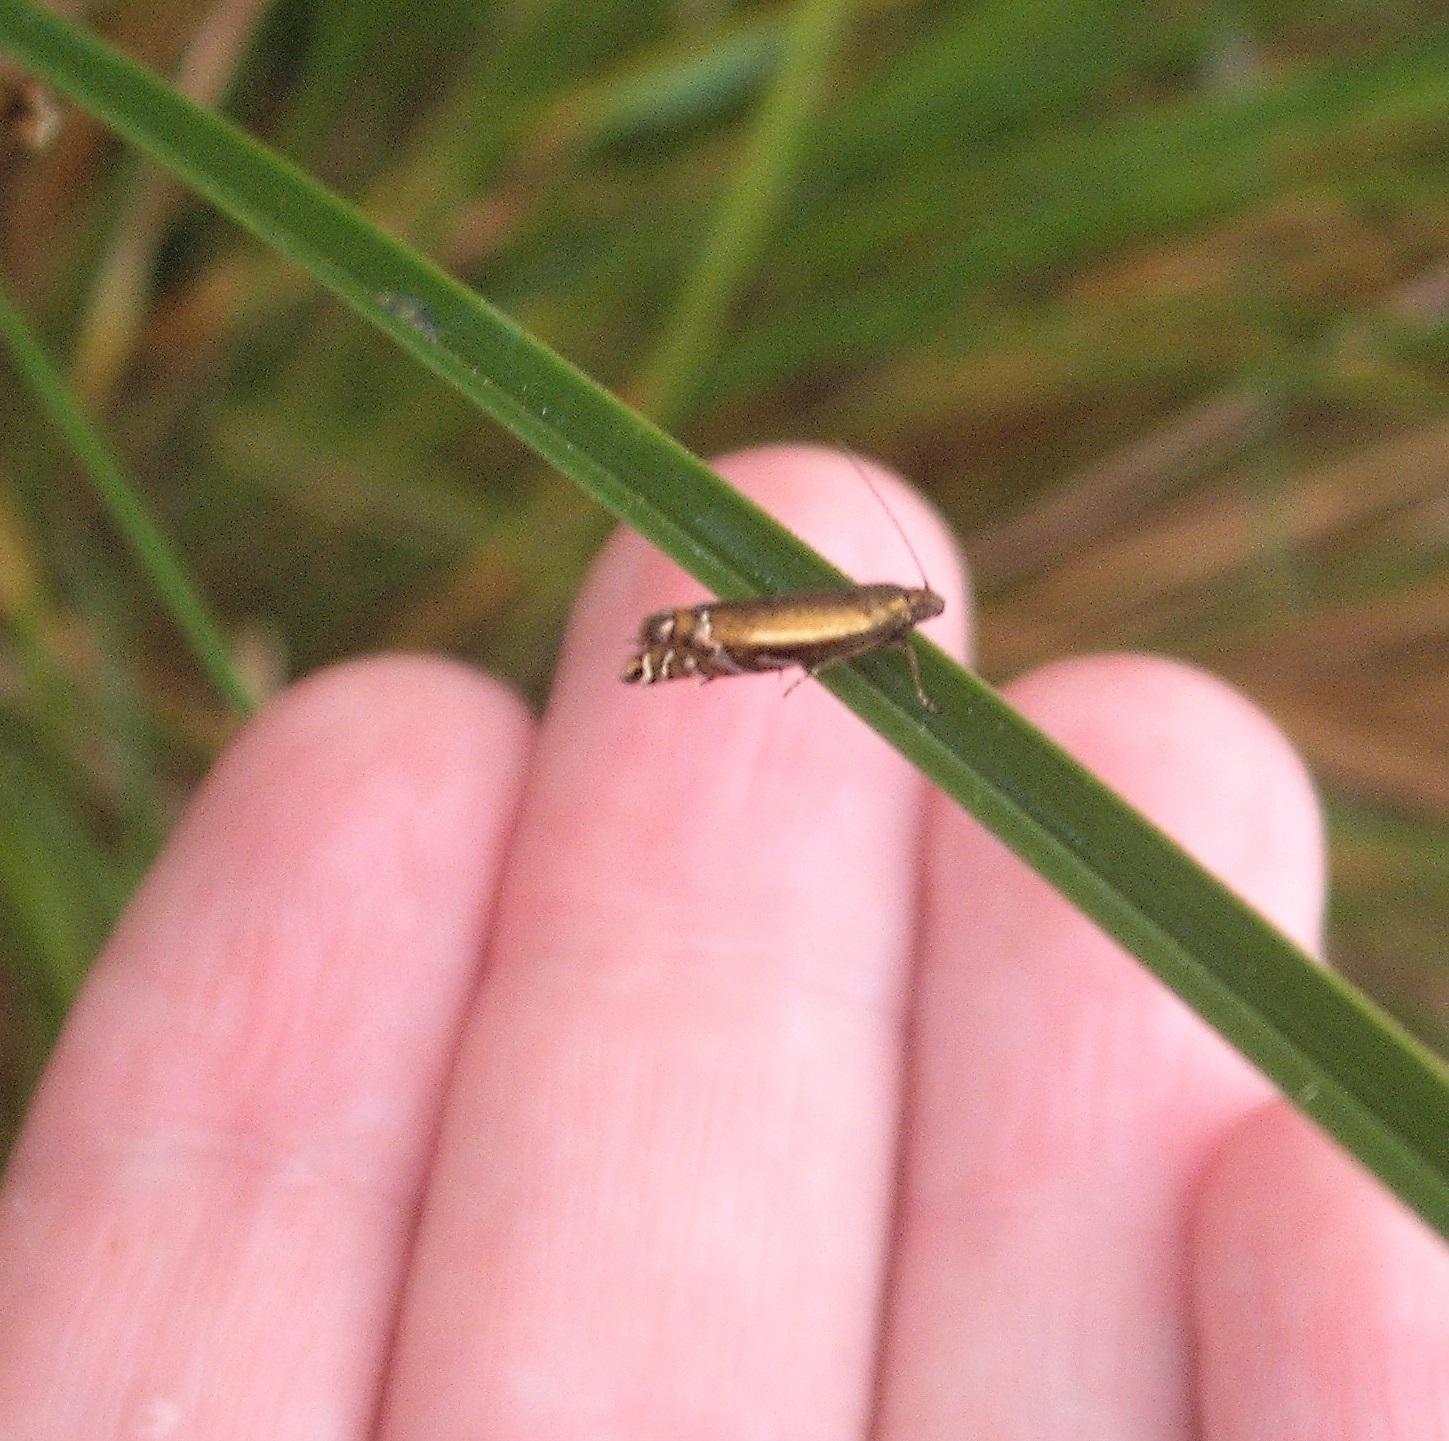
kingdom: Animalia
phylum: Arthropoda
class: Insecta
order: Lepidoptera
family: Glyphipterigidae
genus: Glyphipterix
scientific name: Glyphipterix scintilella
